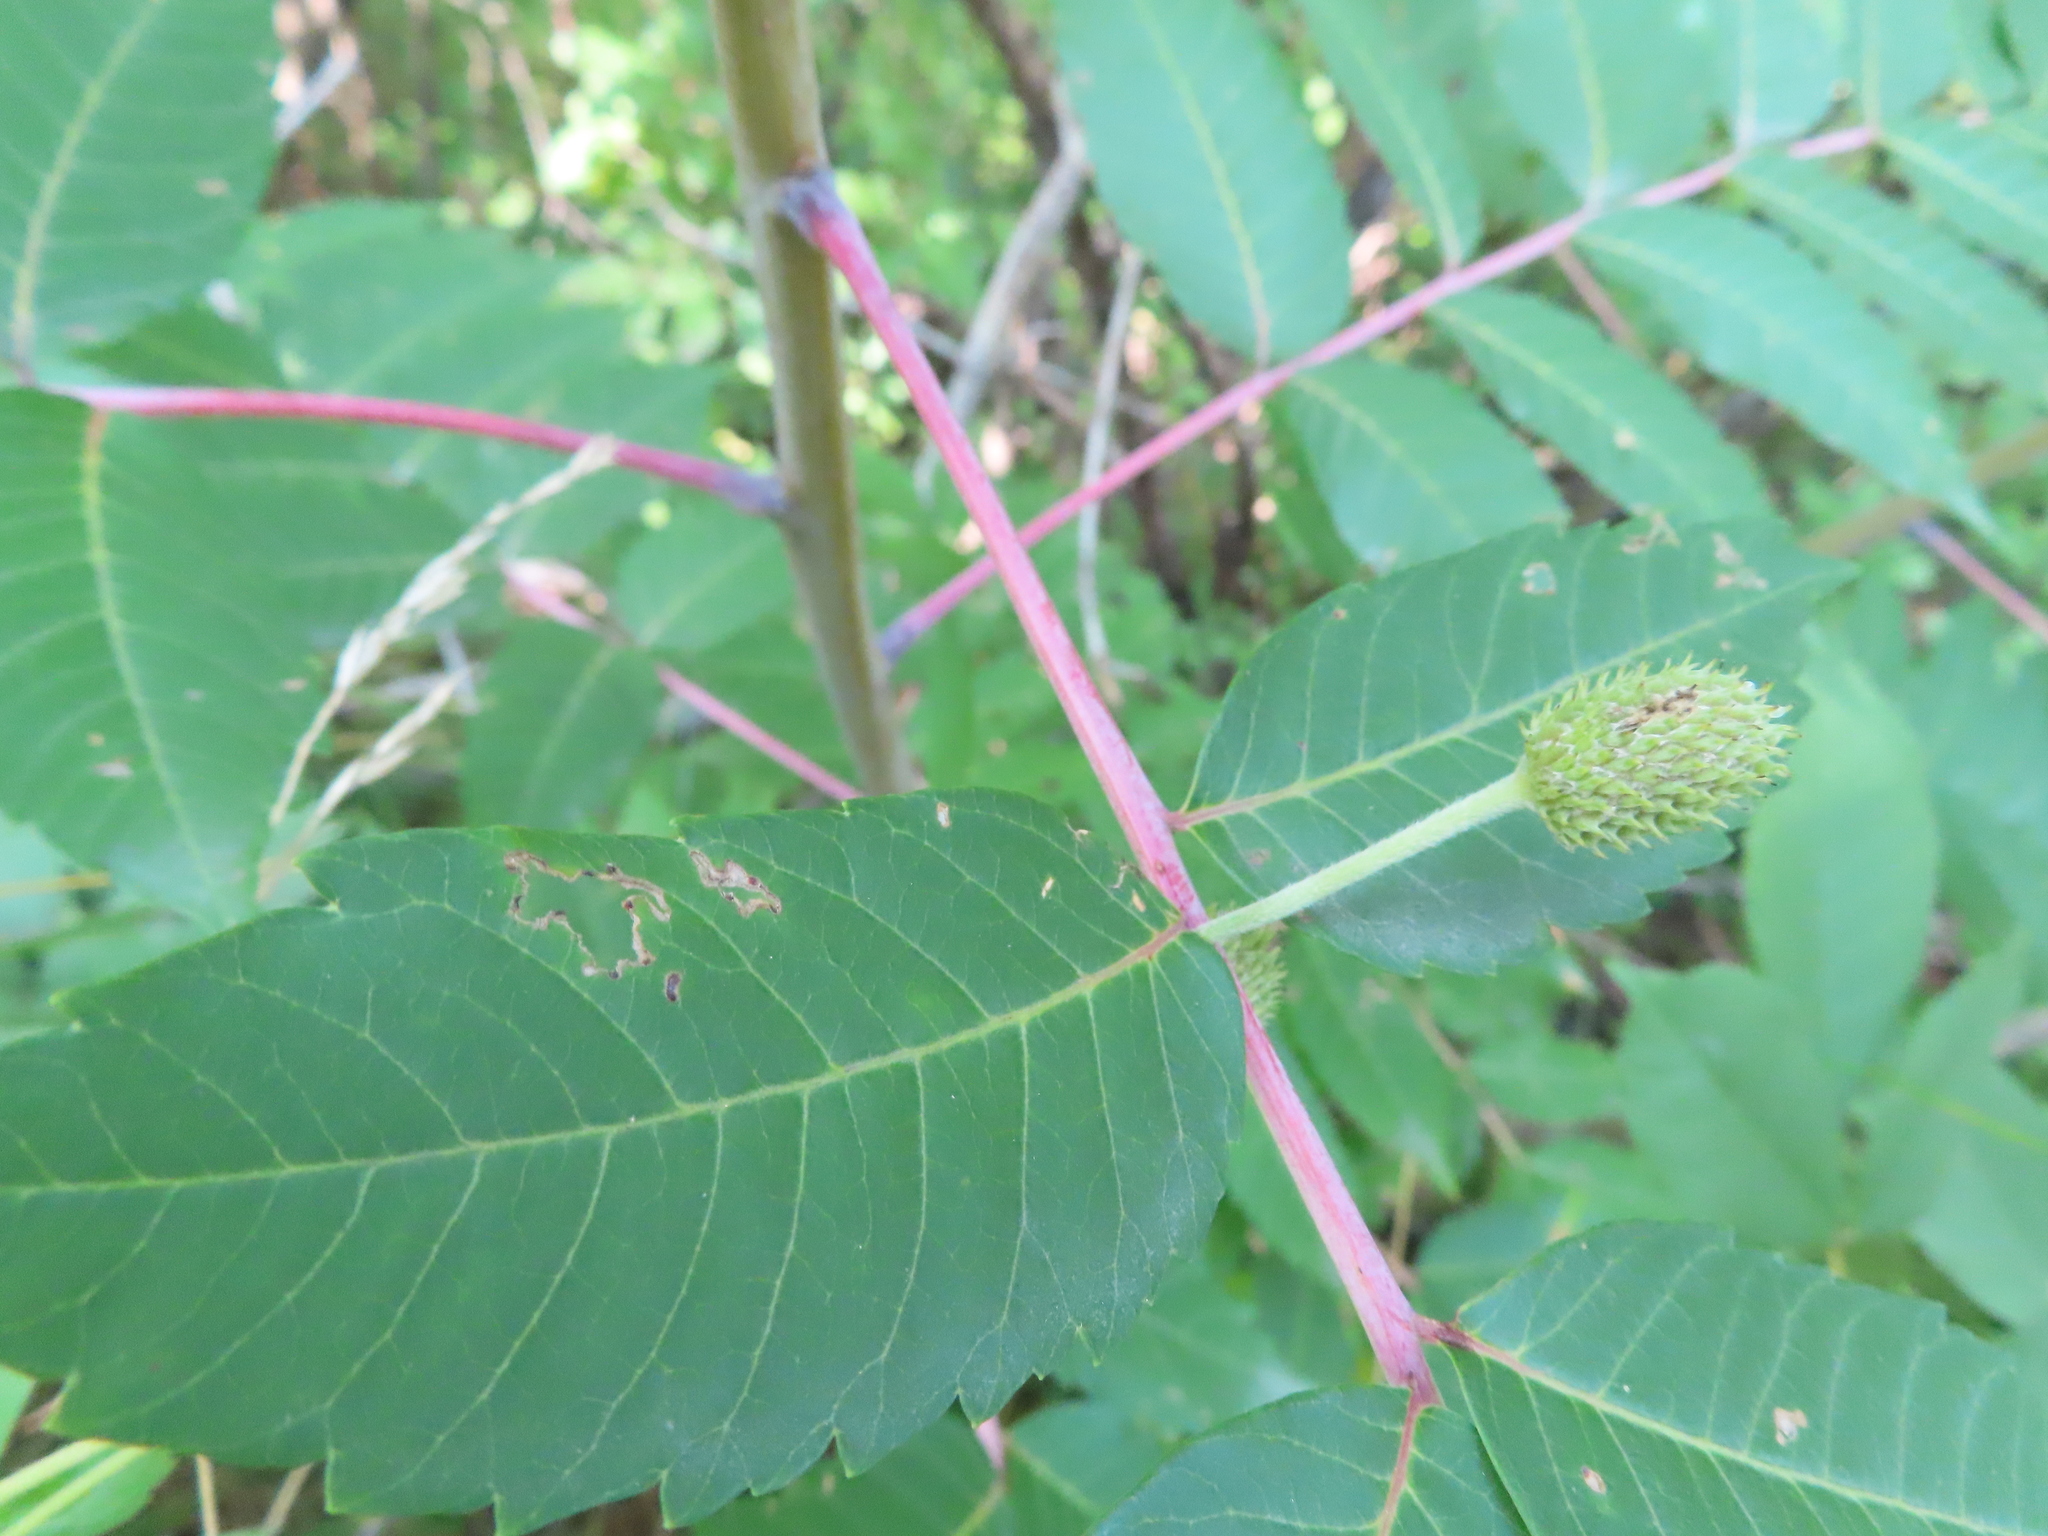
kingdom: Plantae
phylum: Tracheophyta
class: Magnoliopsida
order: Ranunculales
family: Ranunculaceae
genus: Anemone
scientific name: Anemone virginiana
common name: Tall anemone
